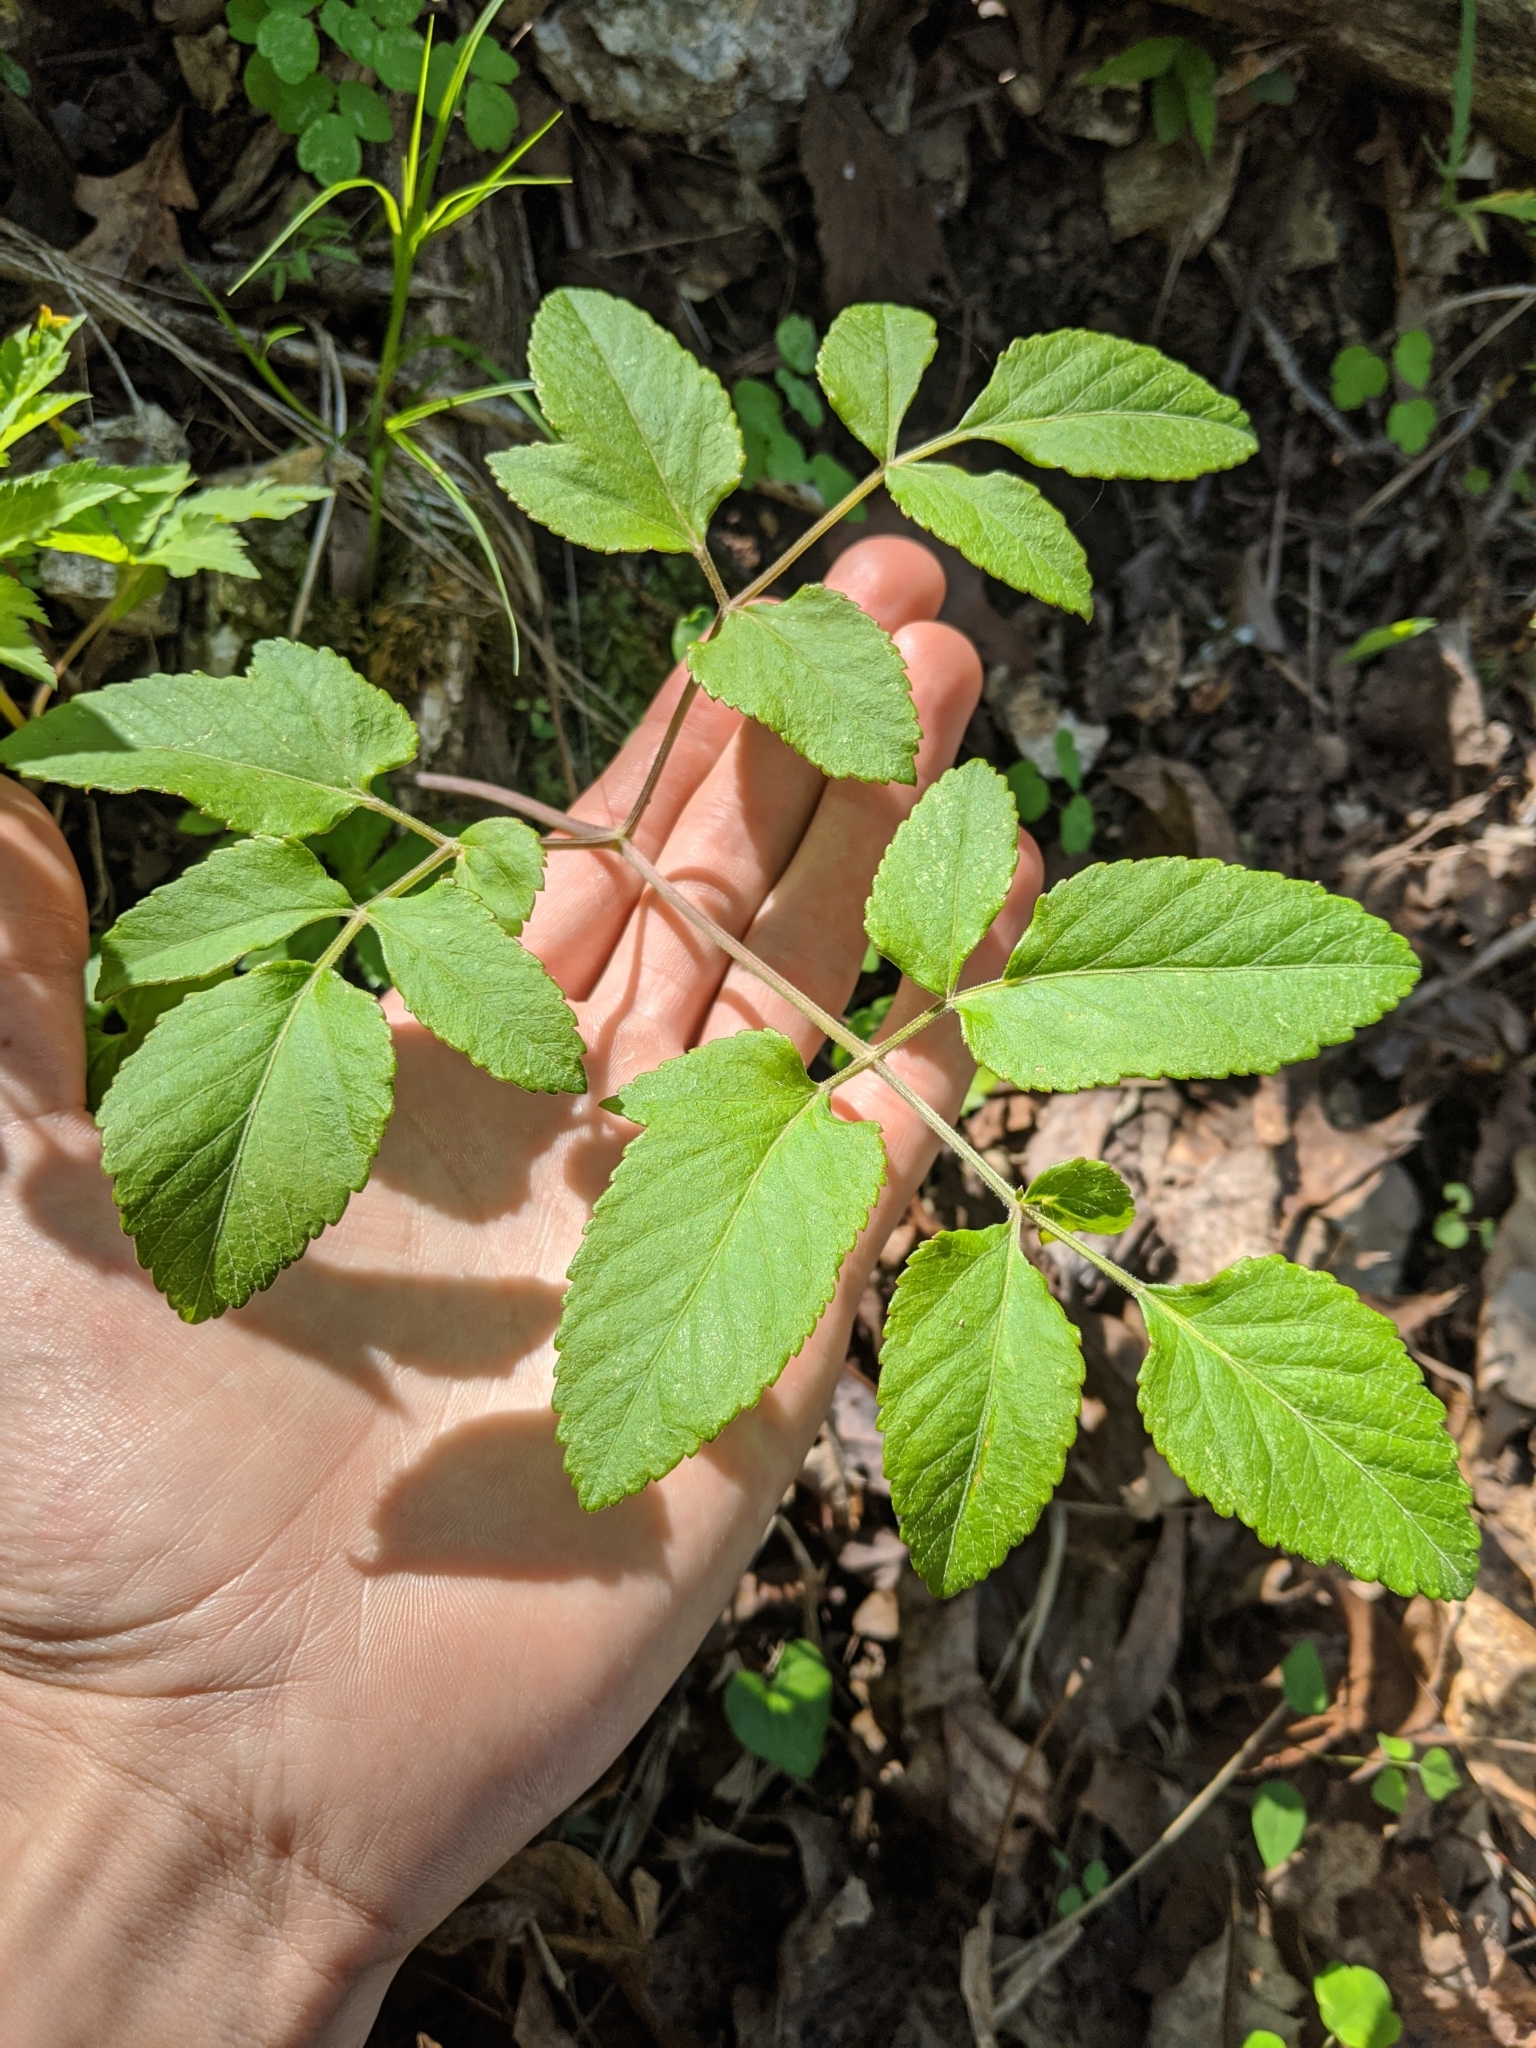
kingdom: Plantae
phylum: Tracheophyta
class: Magnoliopsida
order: Apiales
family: Apiaceae
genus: Angelica
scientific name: Angelica venenosa
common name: Hairy angelica
